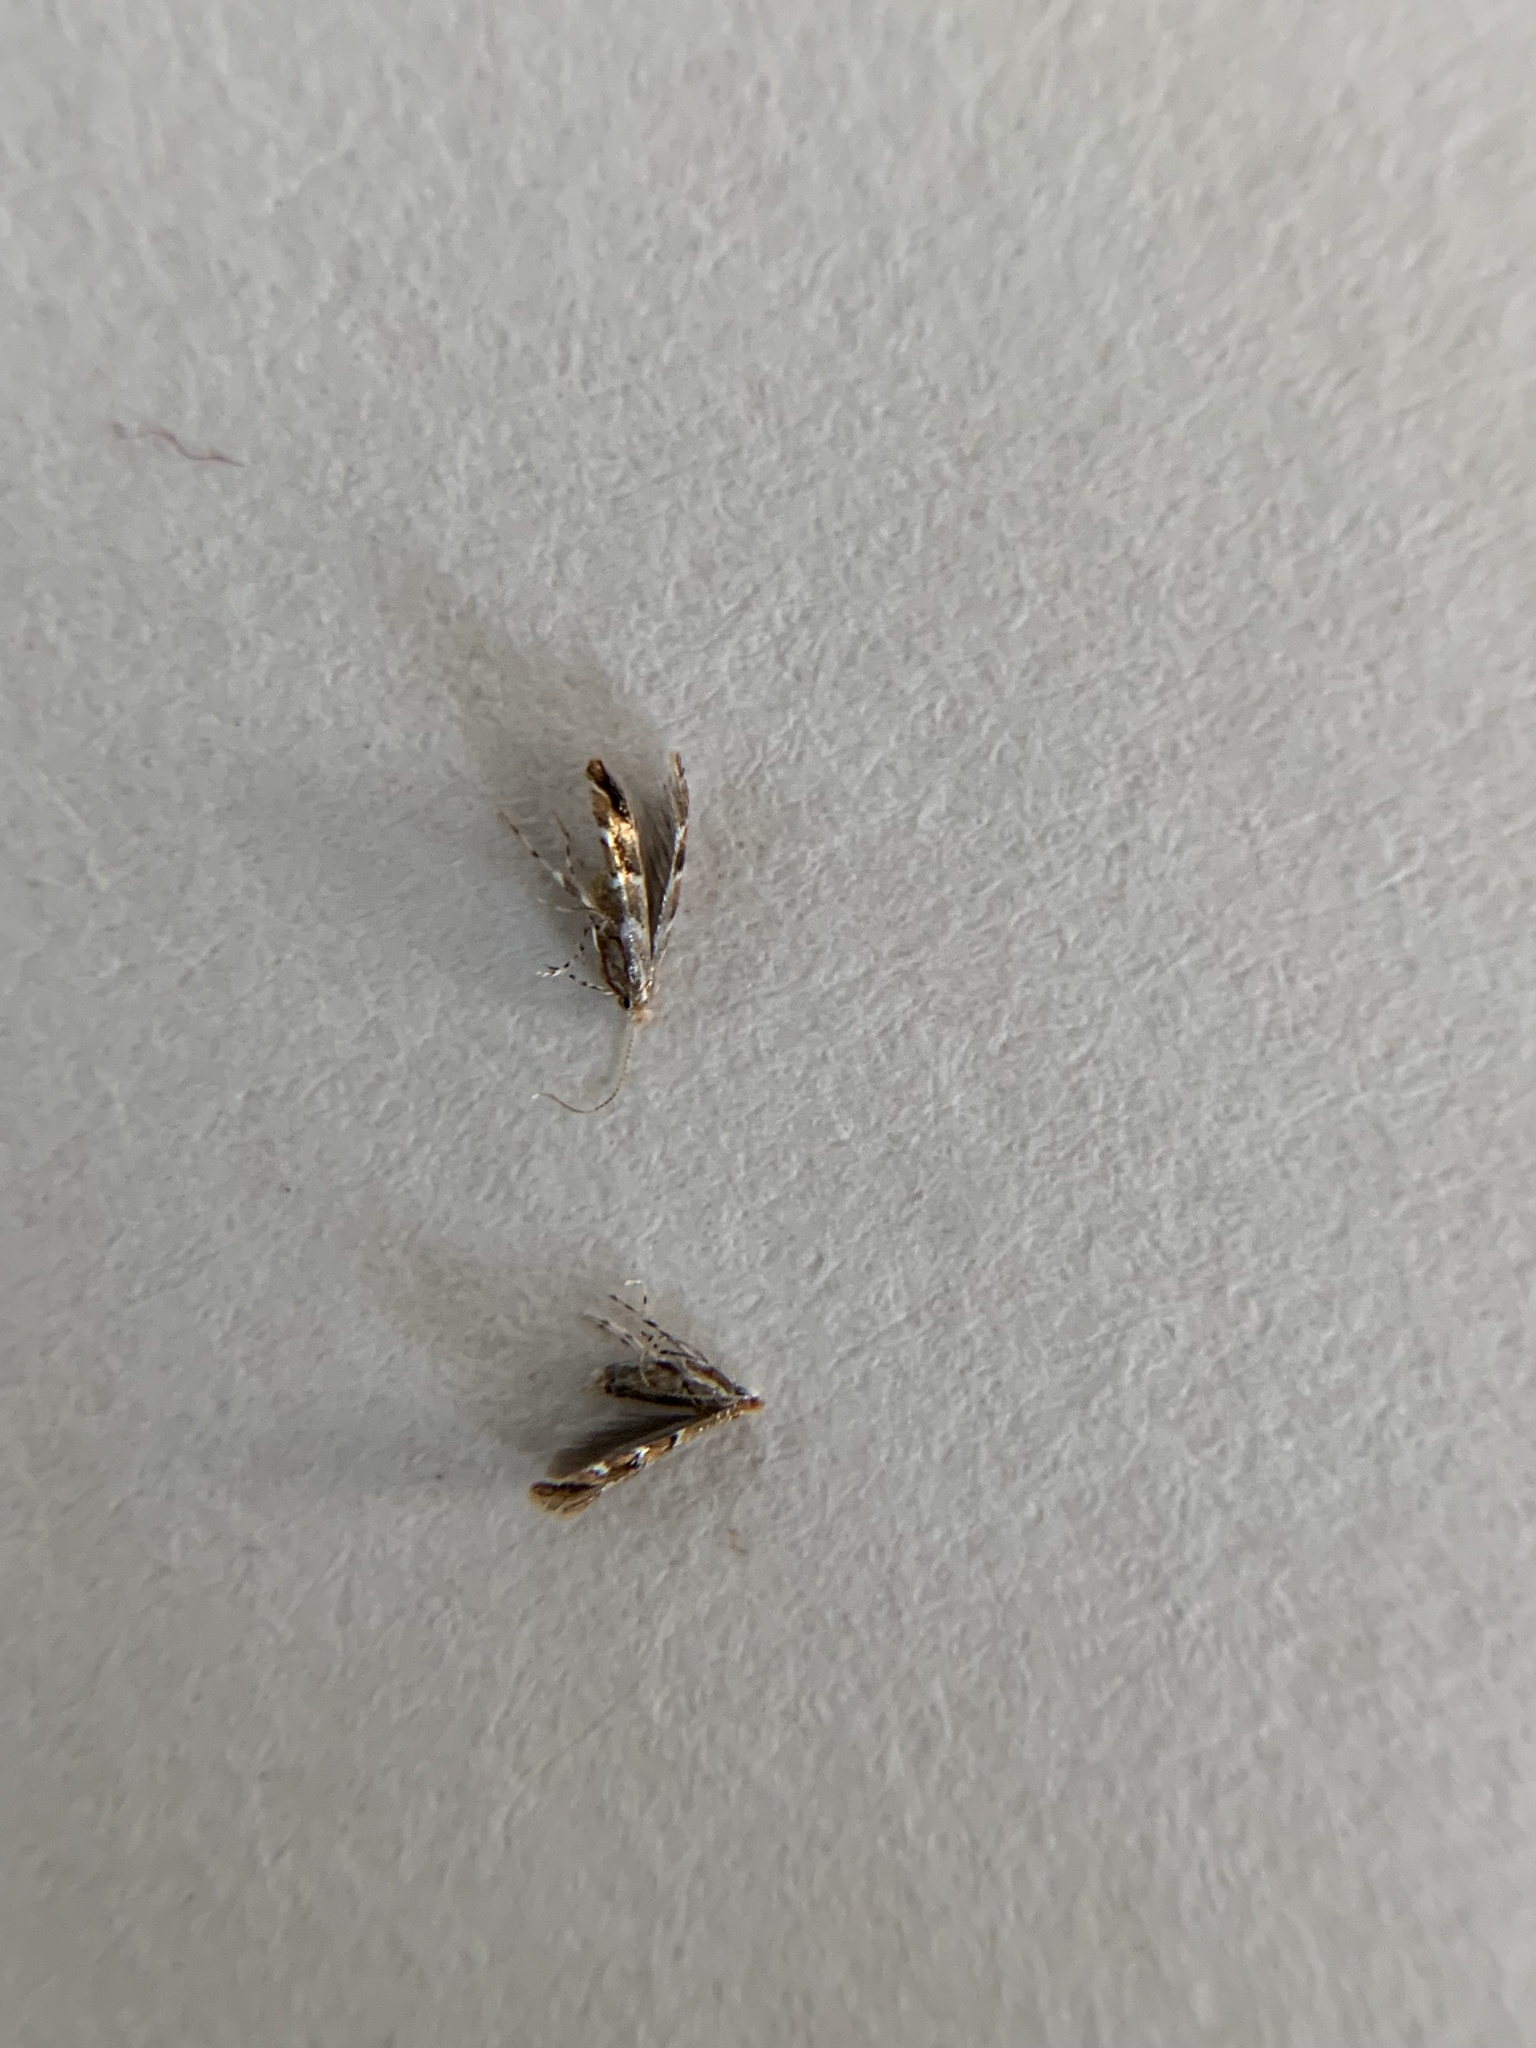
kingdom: Animalia
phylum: Arthropoda
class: Insecta
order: Lepidoptera
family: Gracillariidae
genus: Cameraria
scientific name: Cameraria ohridella
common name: Horse-chestnut leaf-miner
